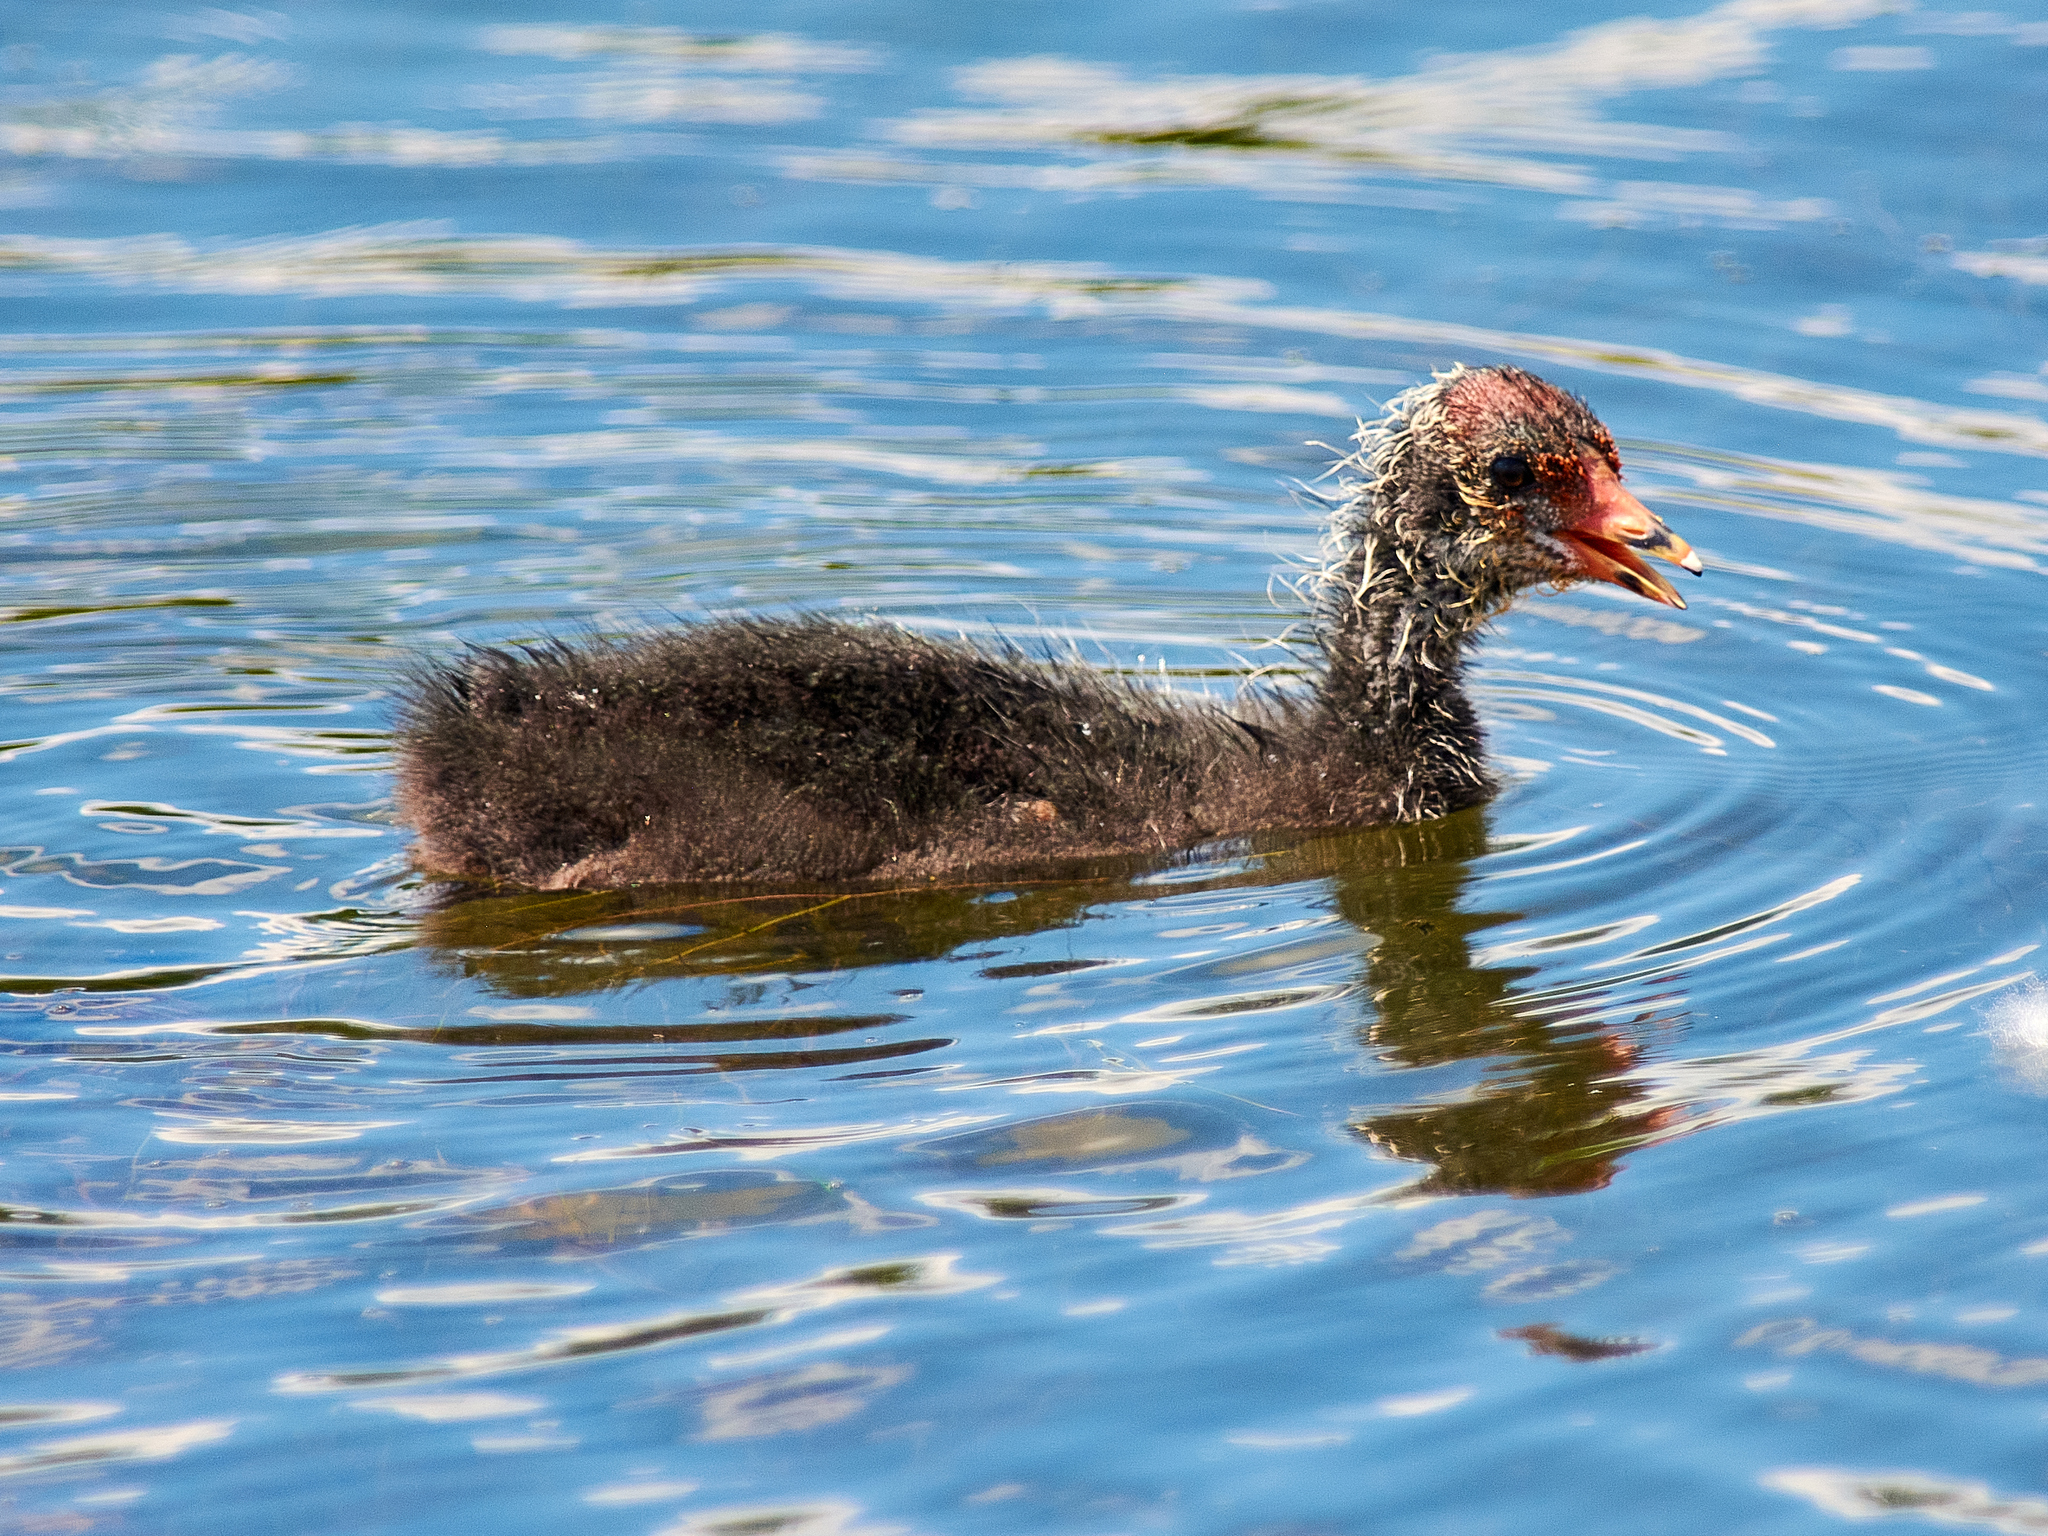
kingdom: Animalia
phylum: Chordata
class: Aves
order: Gruiformes
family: Rallidae
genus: Fulica
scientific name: Fulica atra
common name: Eurasian coot
